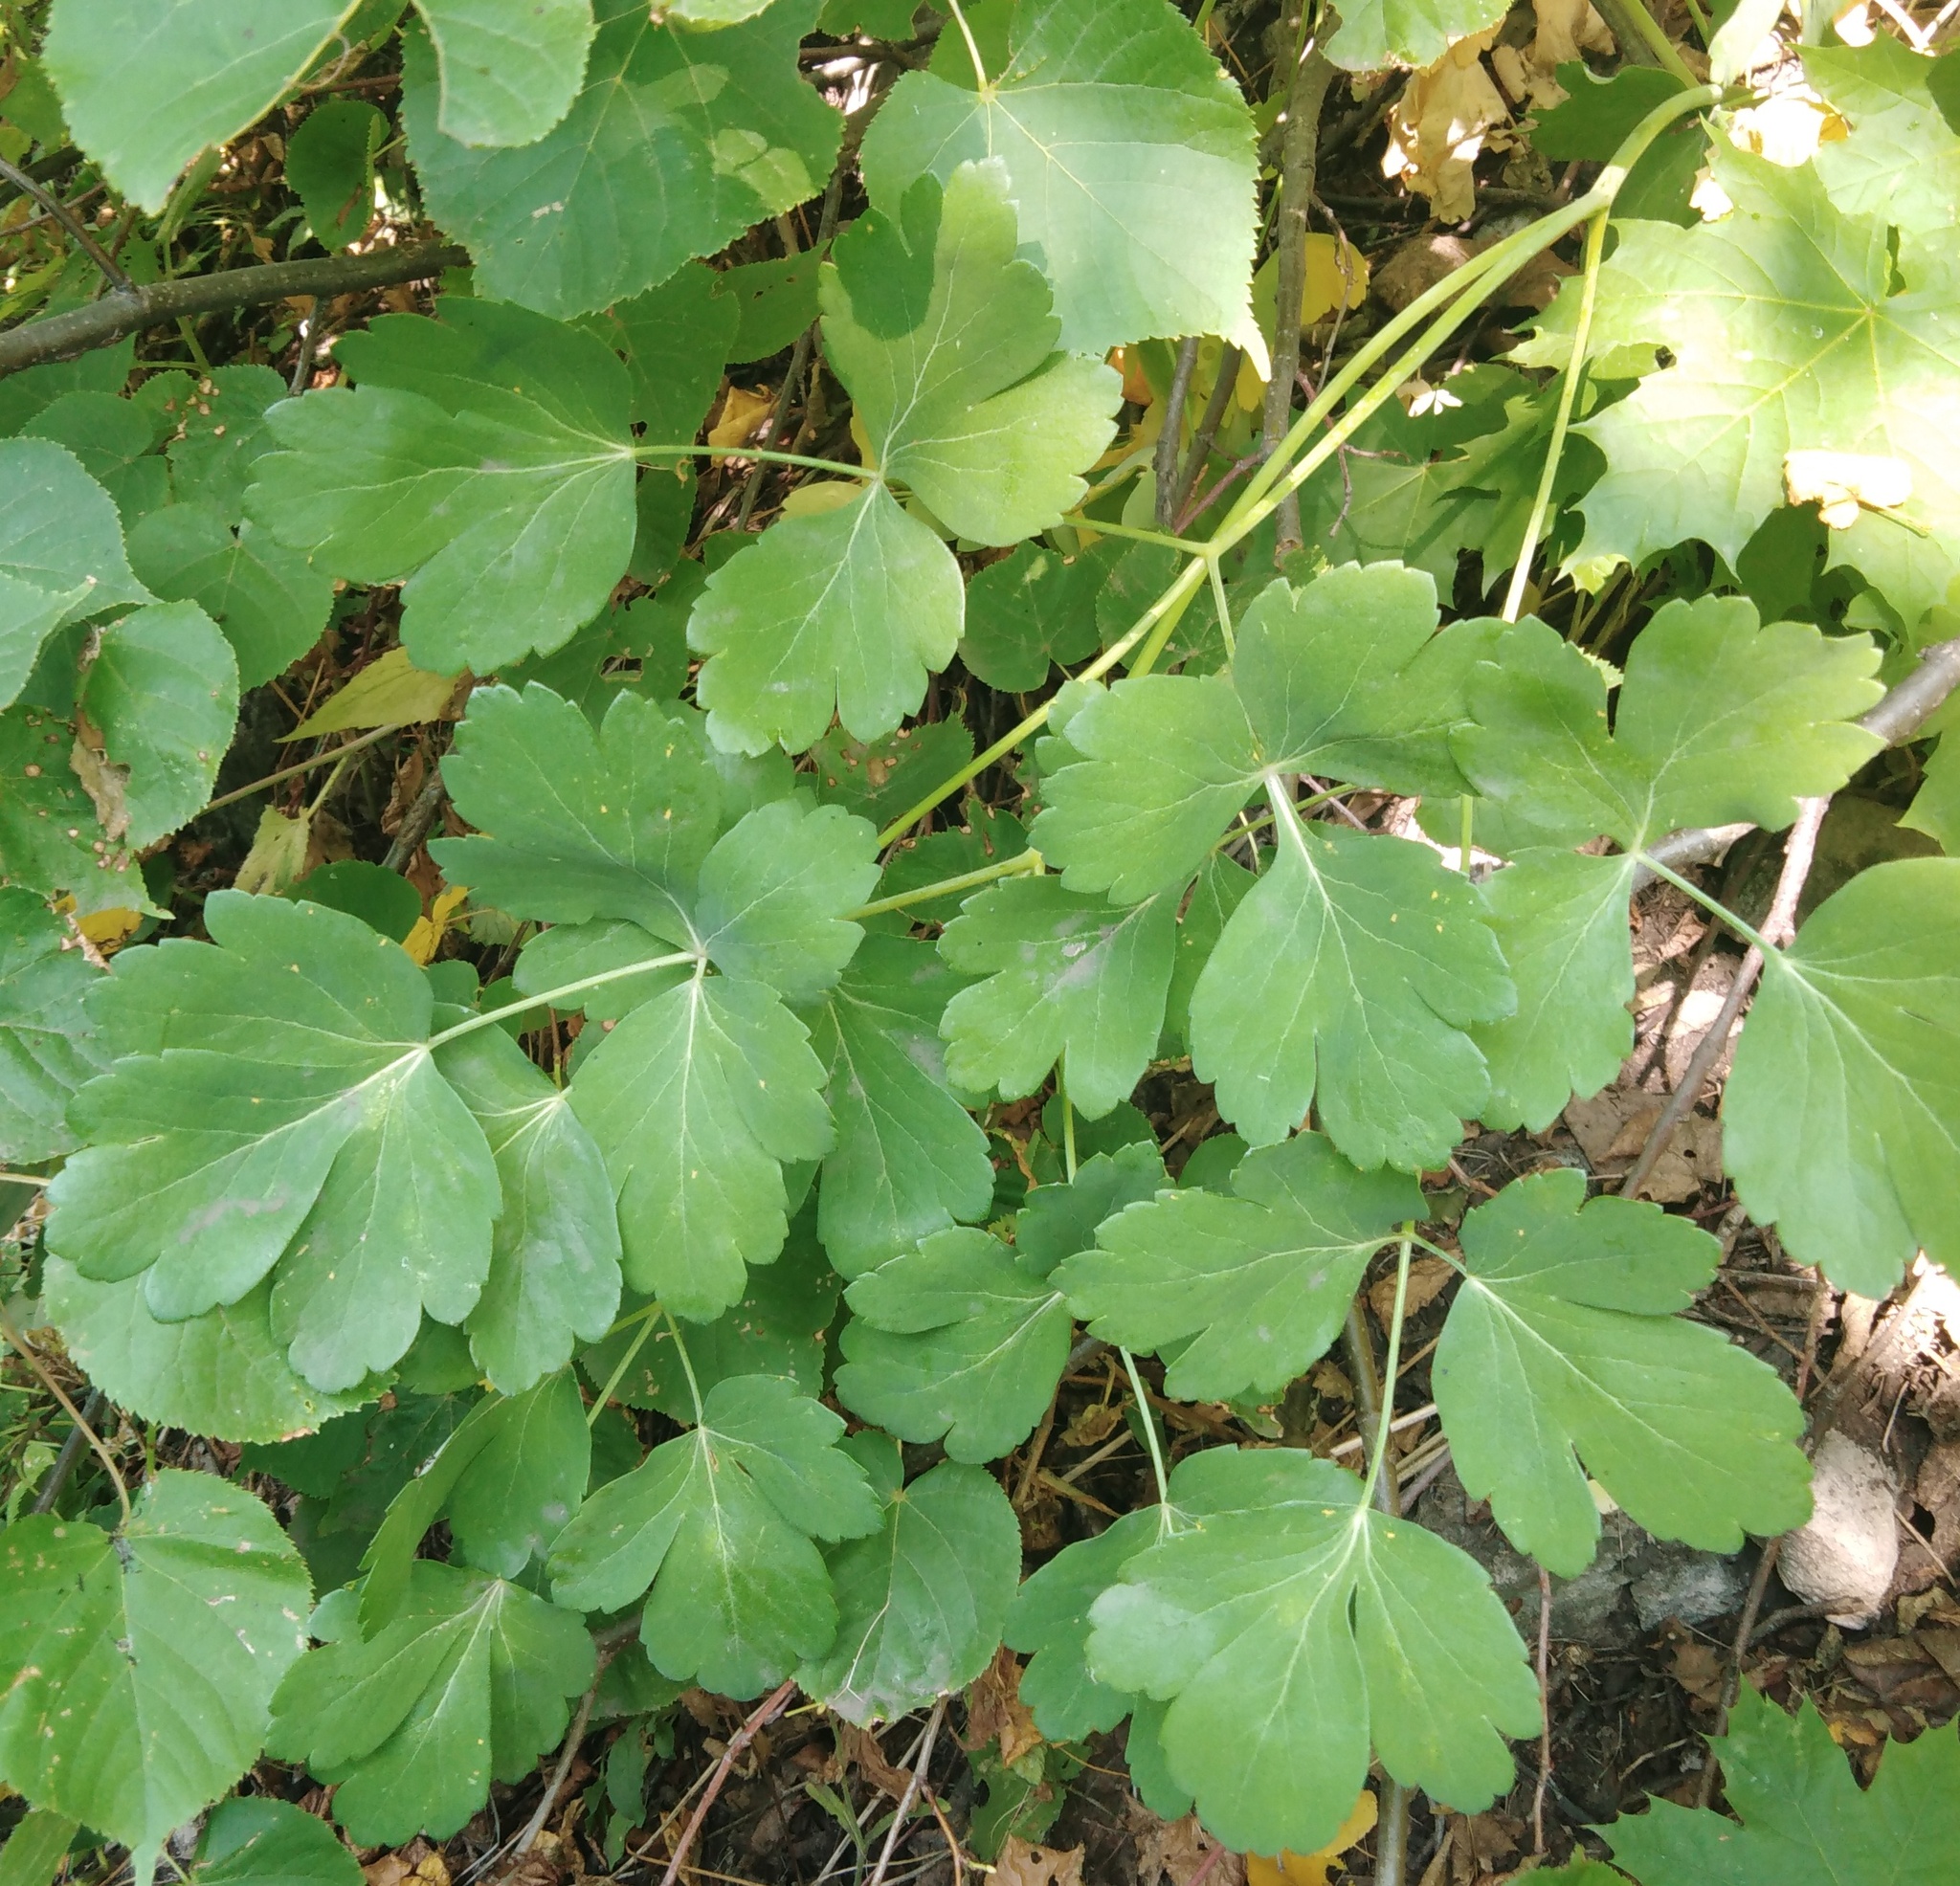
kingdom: Plantae
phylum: Tracheophyta
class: Magnoliopsida
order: Apiales
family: Apiaceae
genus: Laser
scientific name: Laser trilobum
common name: Laser
